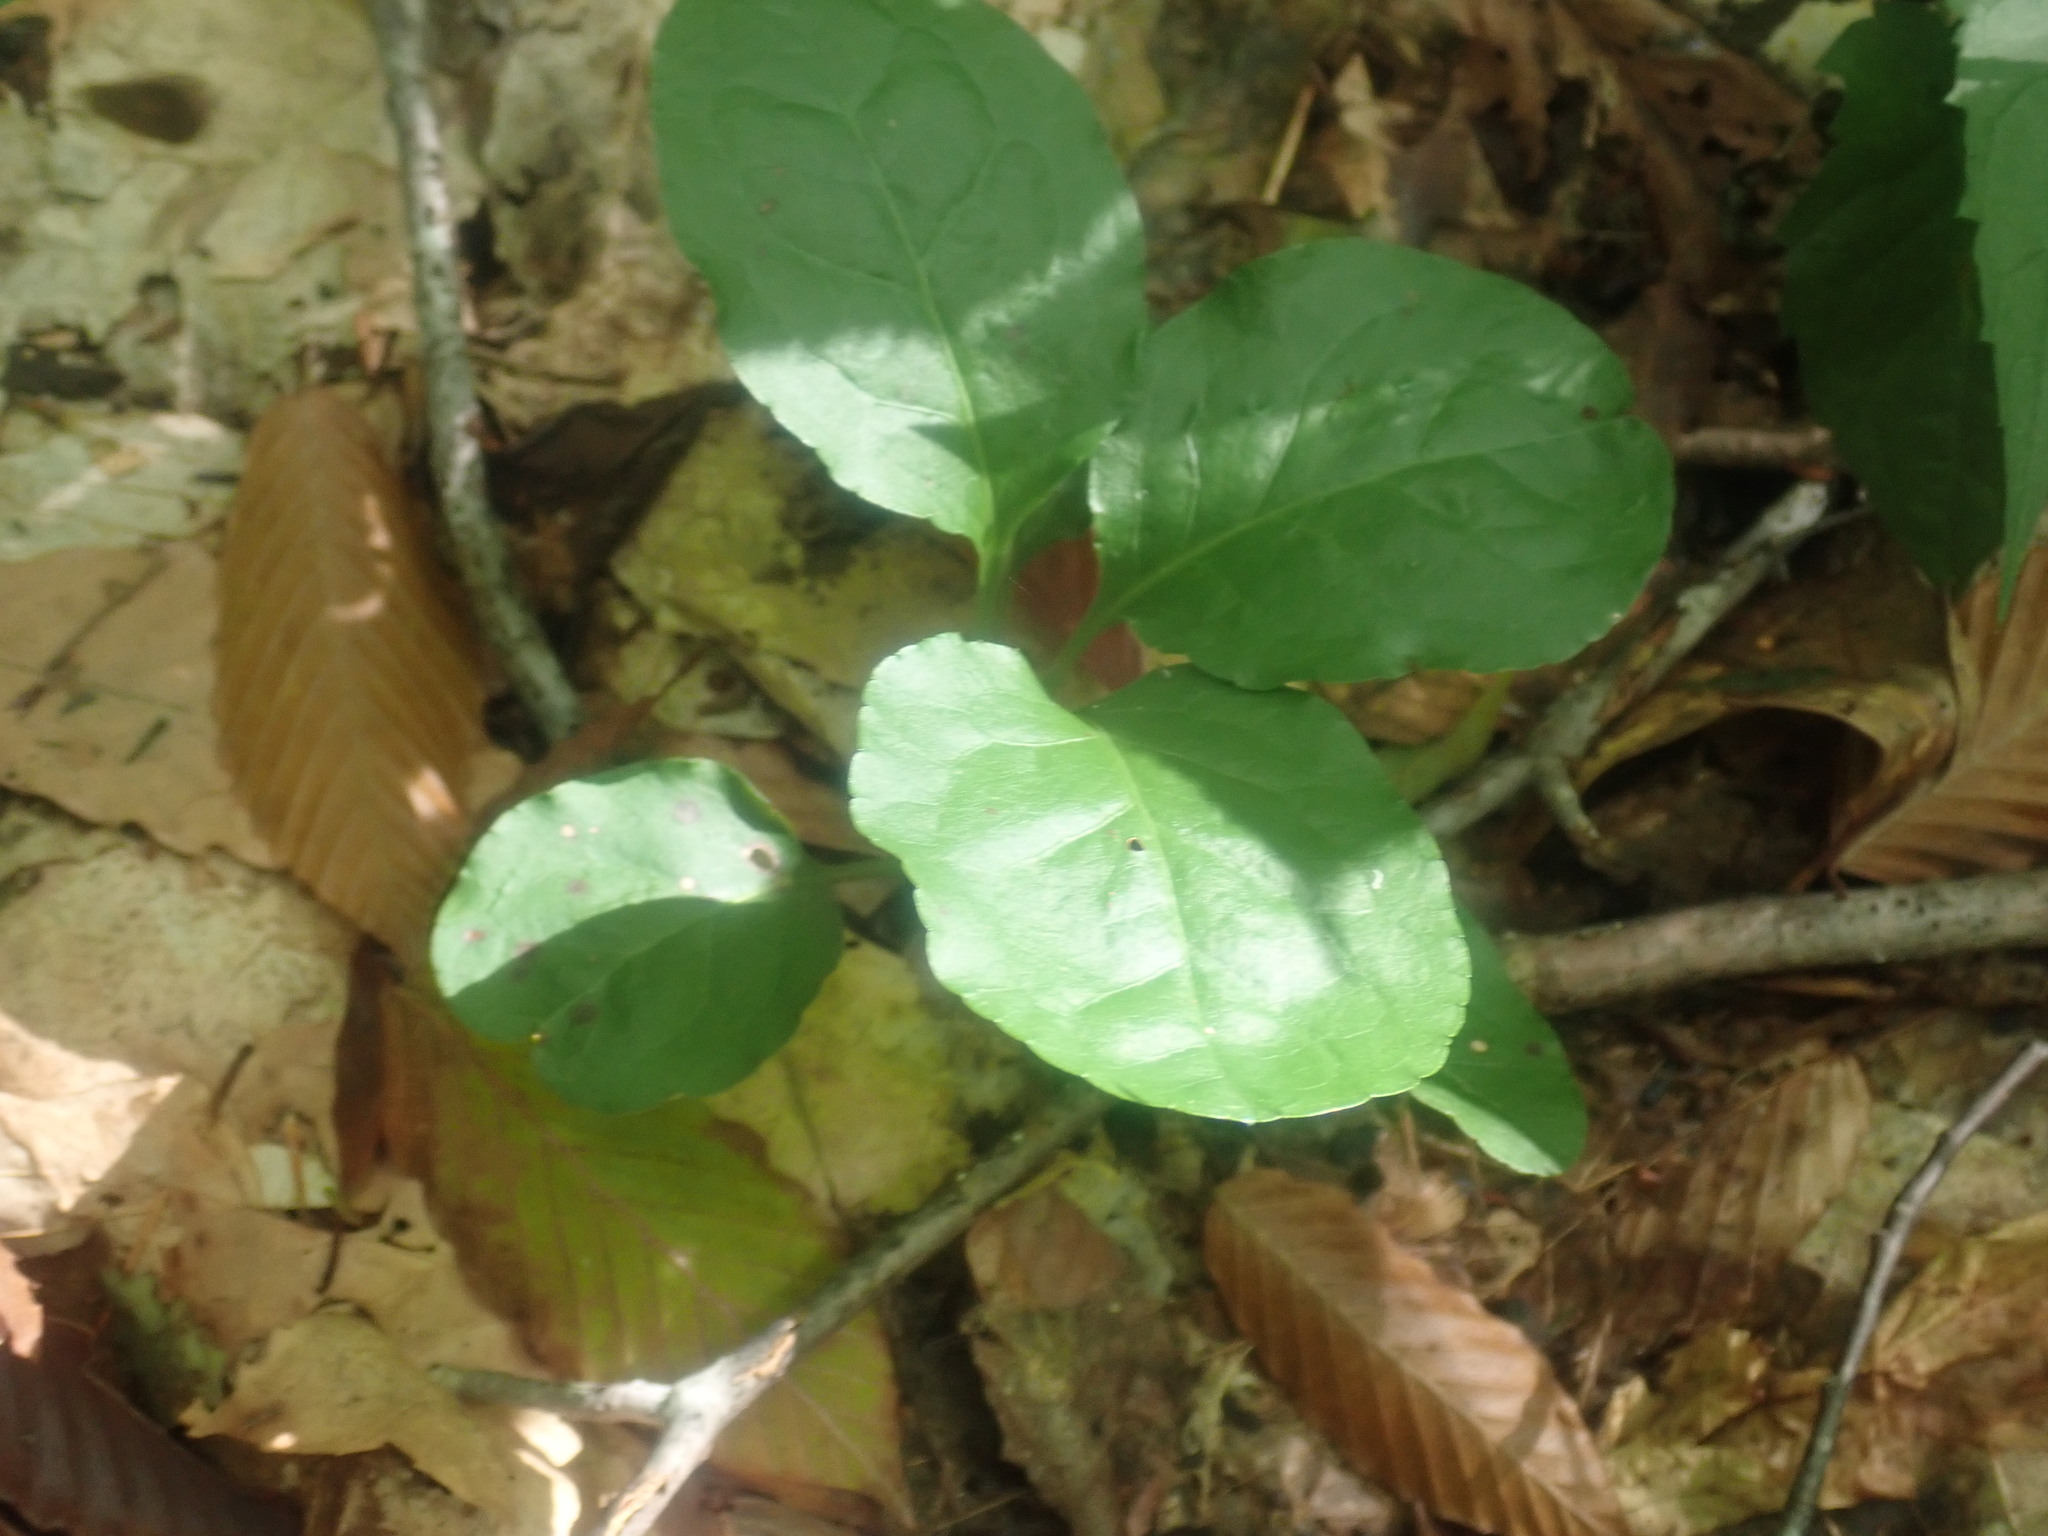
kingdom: Plantae
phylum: Tracheophyta
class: Magnoliopsida
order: Ericales
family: Ericaceae
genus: Pyrola
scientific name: Pyrola elliptica
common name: Shinleaf
